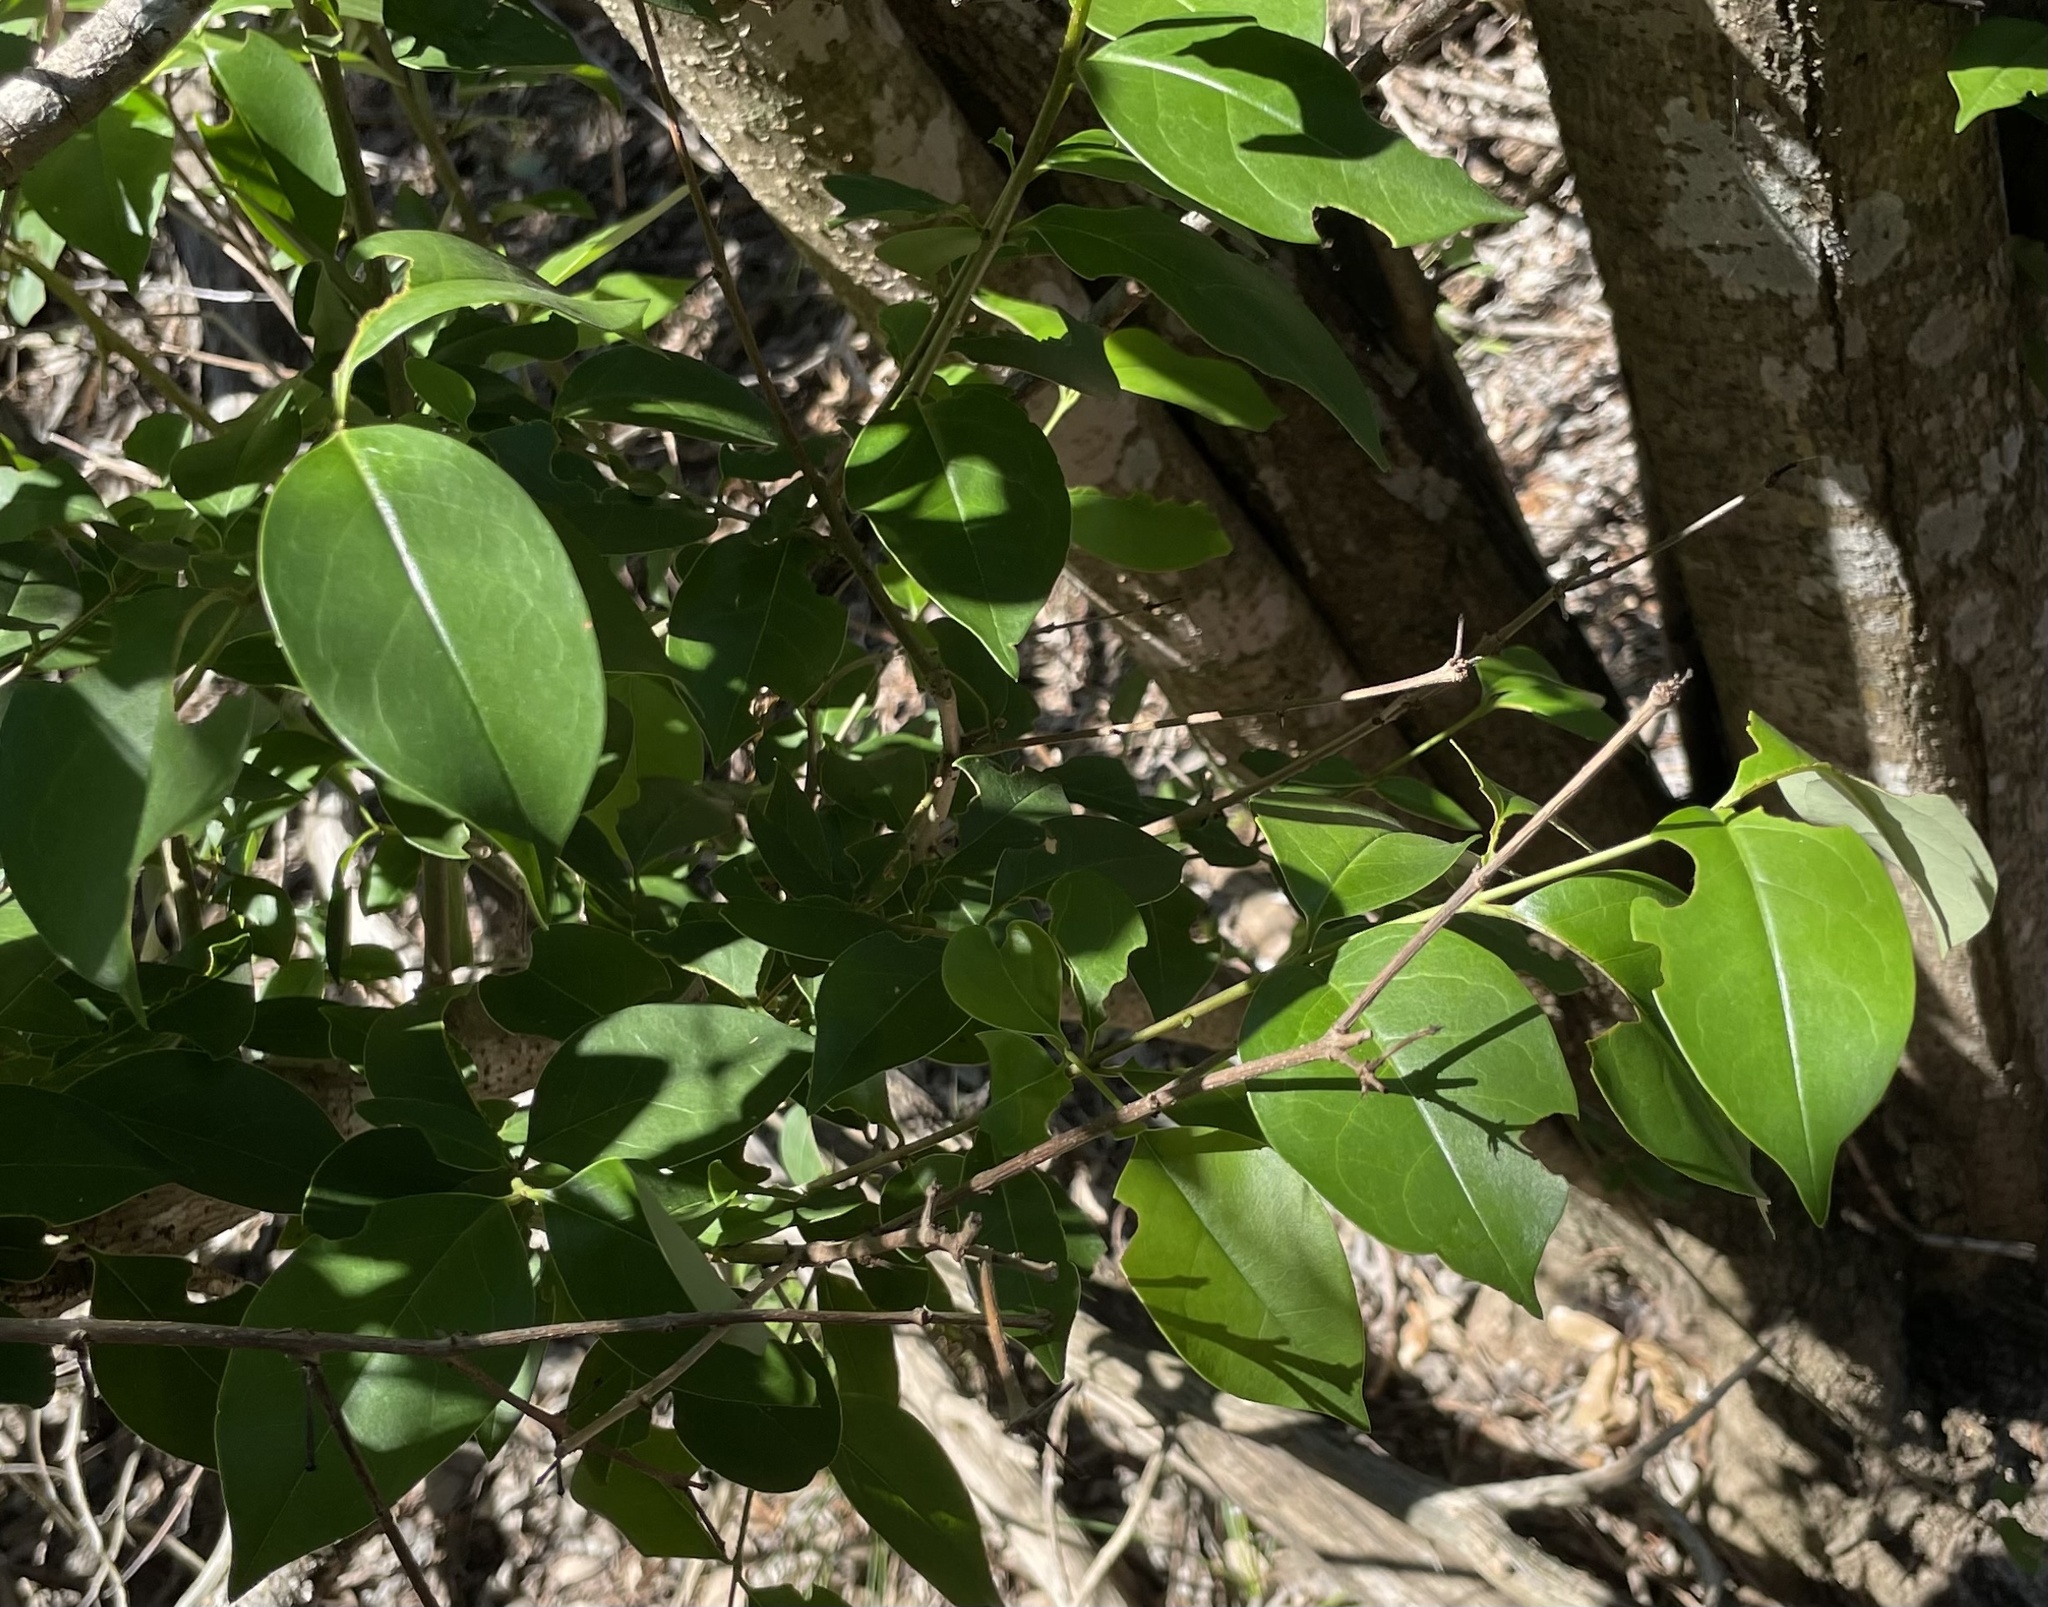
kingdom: Plantae
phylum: Tracheophyta
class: Magnoliopsida
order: Lamiales
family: Oleaceae
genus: Ligustrum
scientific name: Ligustrum lucidum
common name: Glossy privet
